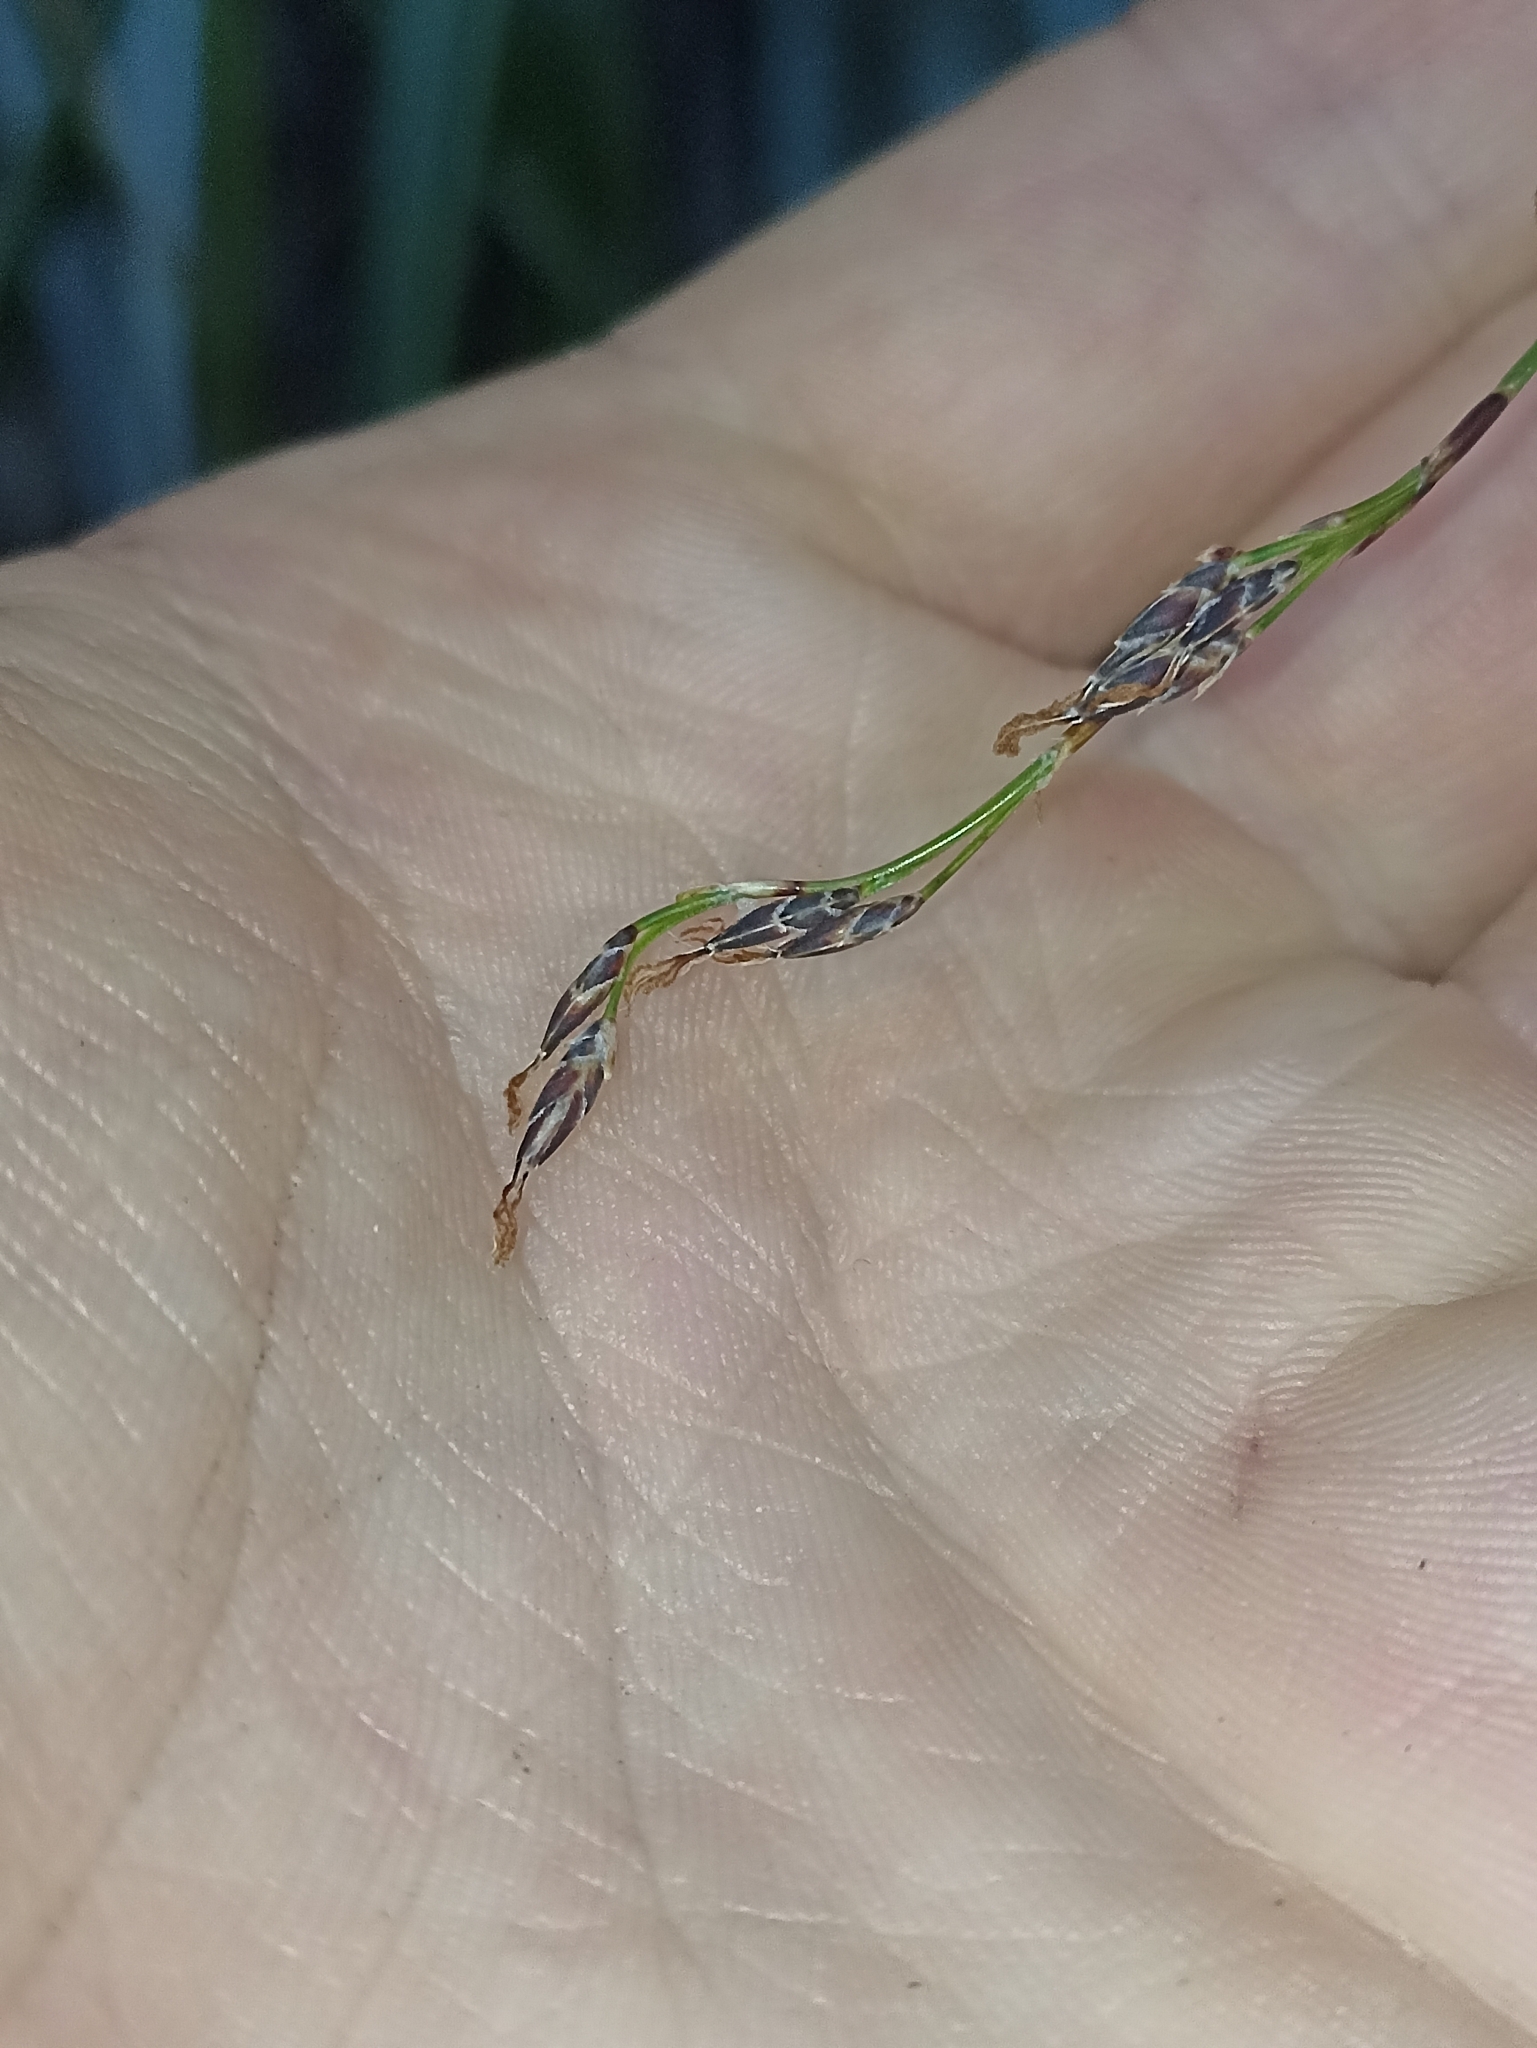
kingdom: Plantae
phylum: Tracheophyta
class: Liliopsida
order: Poales
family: Cyperaceae
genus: Schoenus
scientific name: Schoenus tendo
